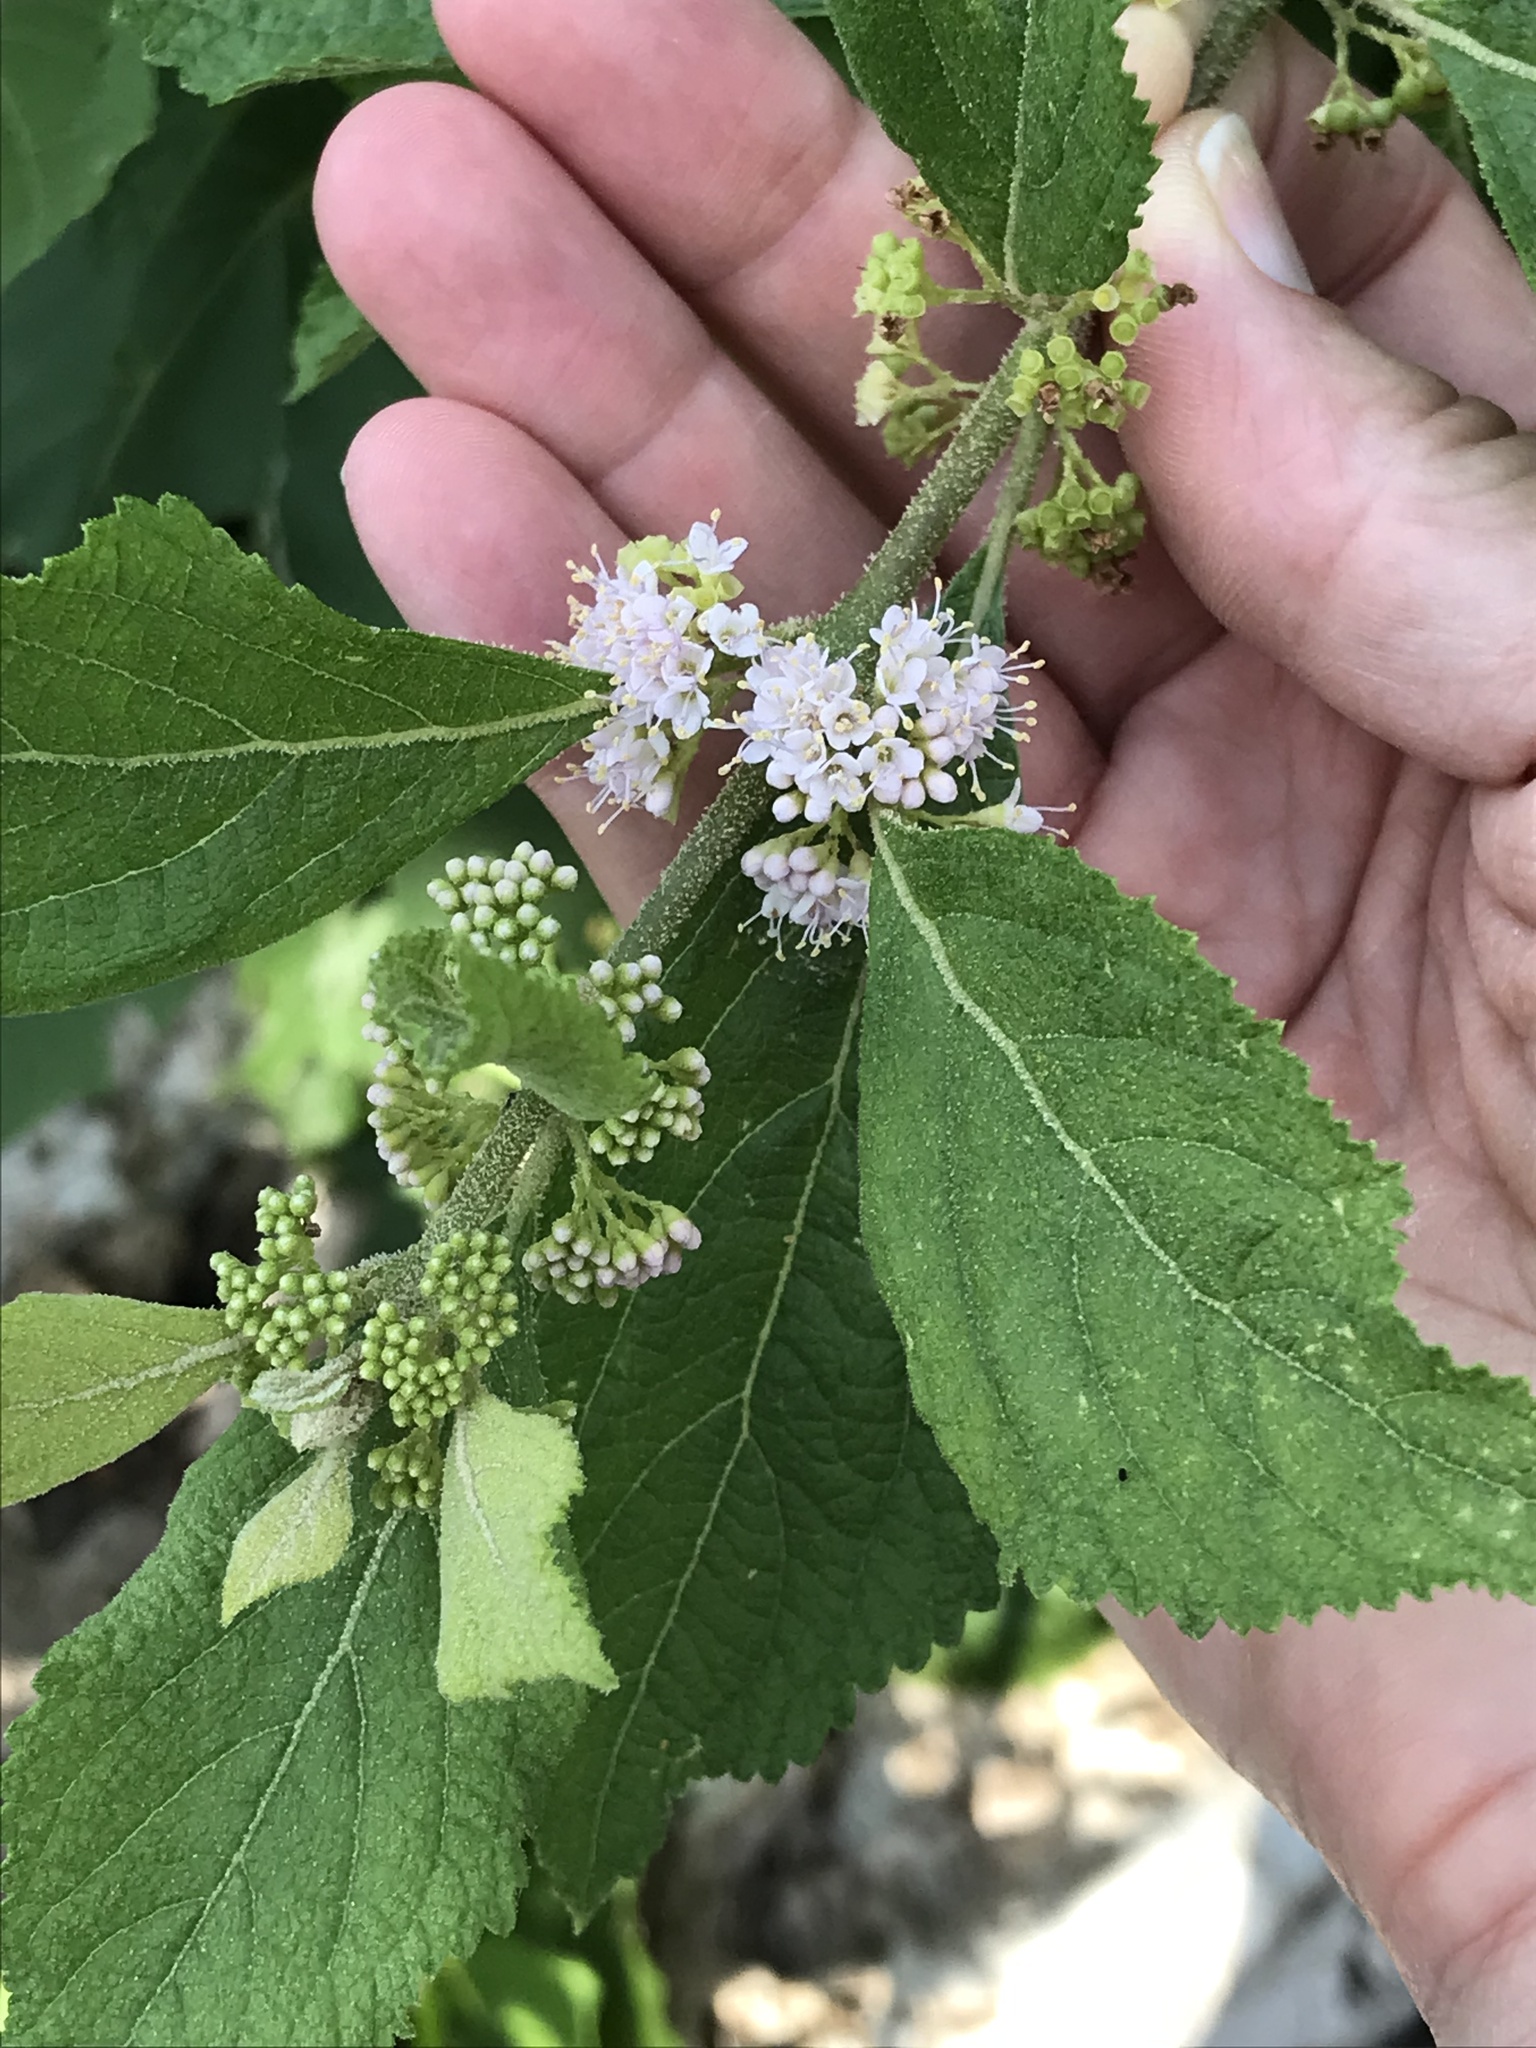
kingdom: Plantae
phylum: Tracheophyta
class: Magnoliopsida
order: Lamiales
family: Lamiaceae
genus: Callicarpa
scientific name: Callicarpa americana
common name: American beautyberry
